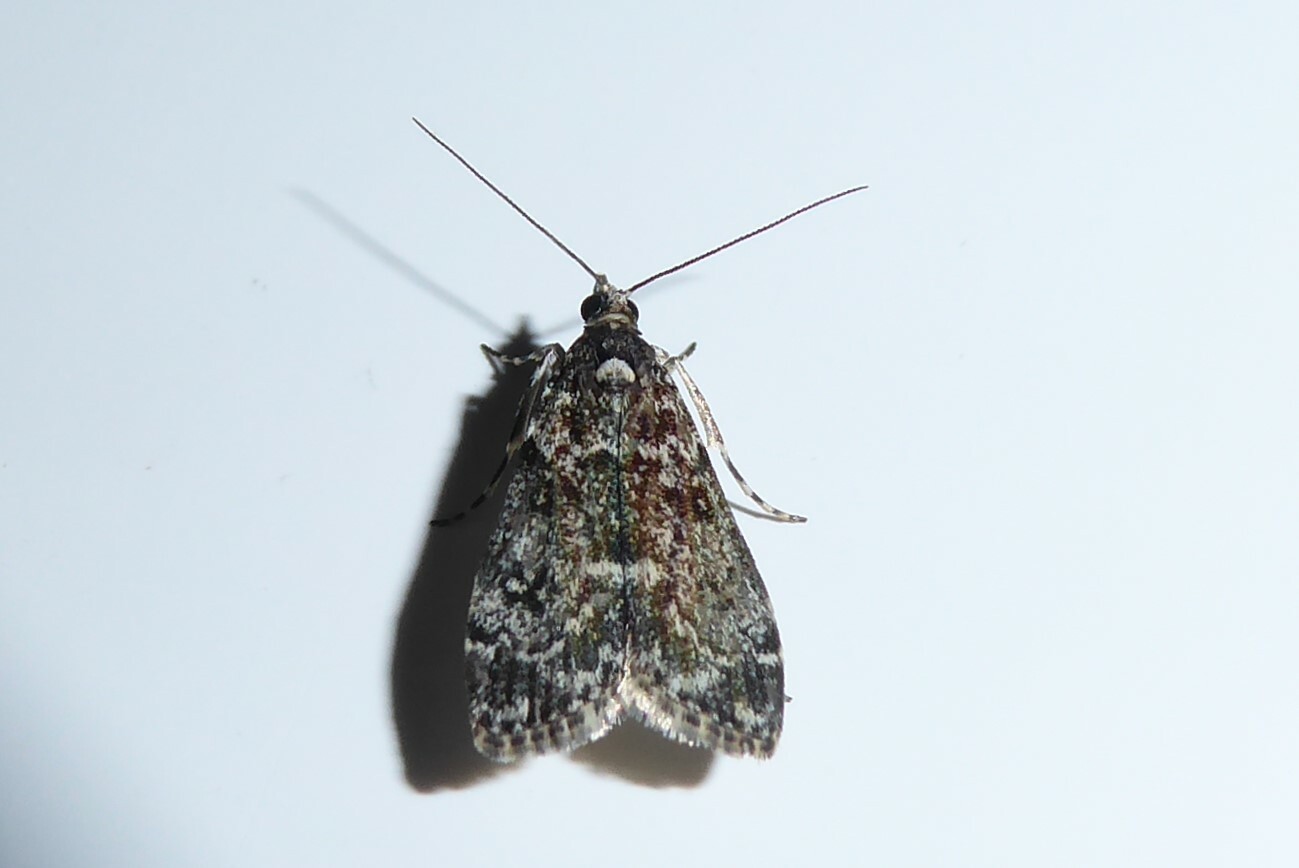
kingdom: Animalia
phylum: Arthropoda
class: Insecta
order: Lepidoptera
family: Crambidae
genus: Eudonia
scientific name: Eudonia philerga
